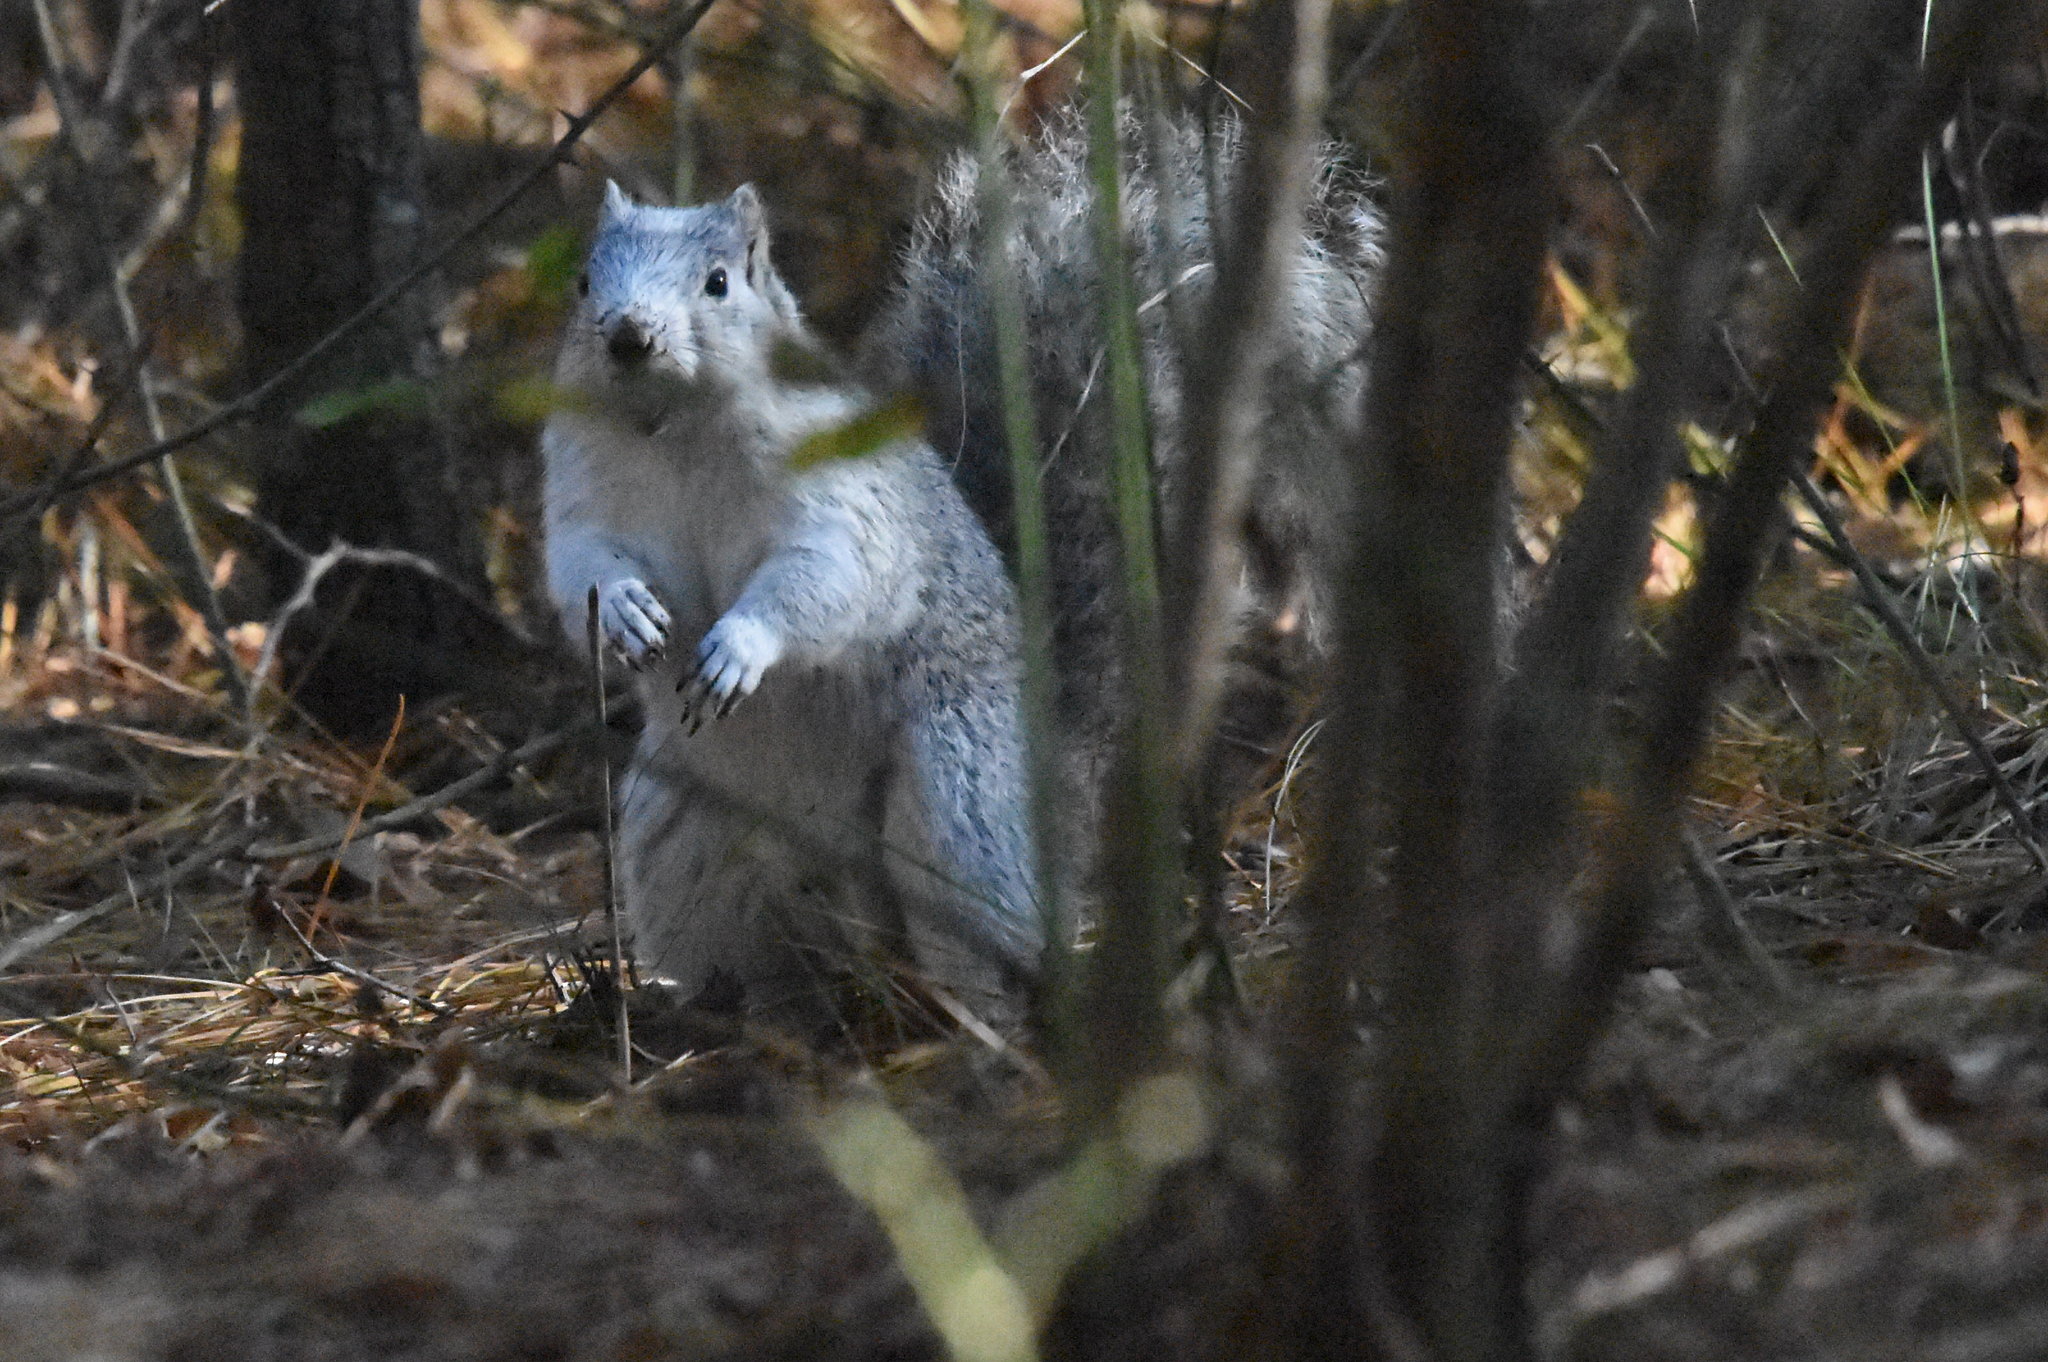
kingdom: Animalia
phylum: Chordata
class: Mammalia
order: Rodentia
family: Sciuridae
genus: Sciurus
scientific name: Sciurus niger
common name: Fox squirrel
